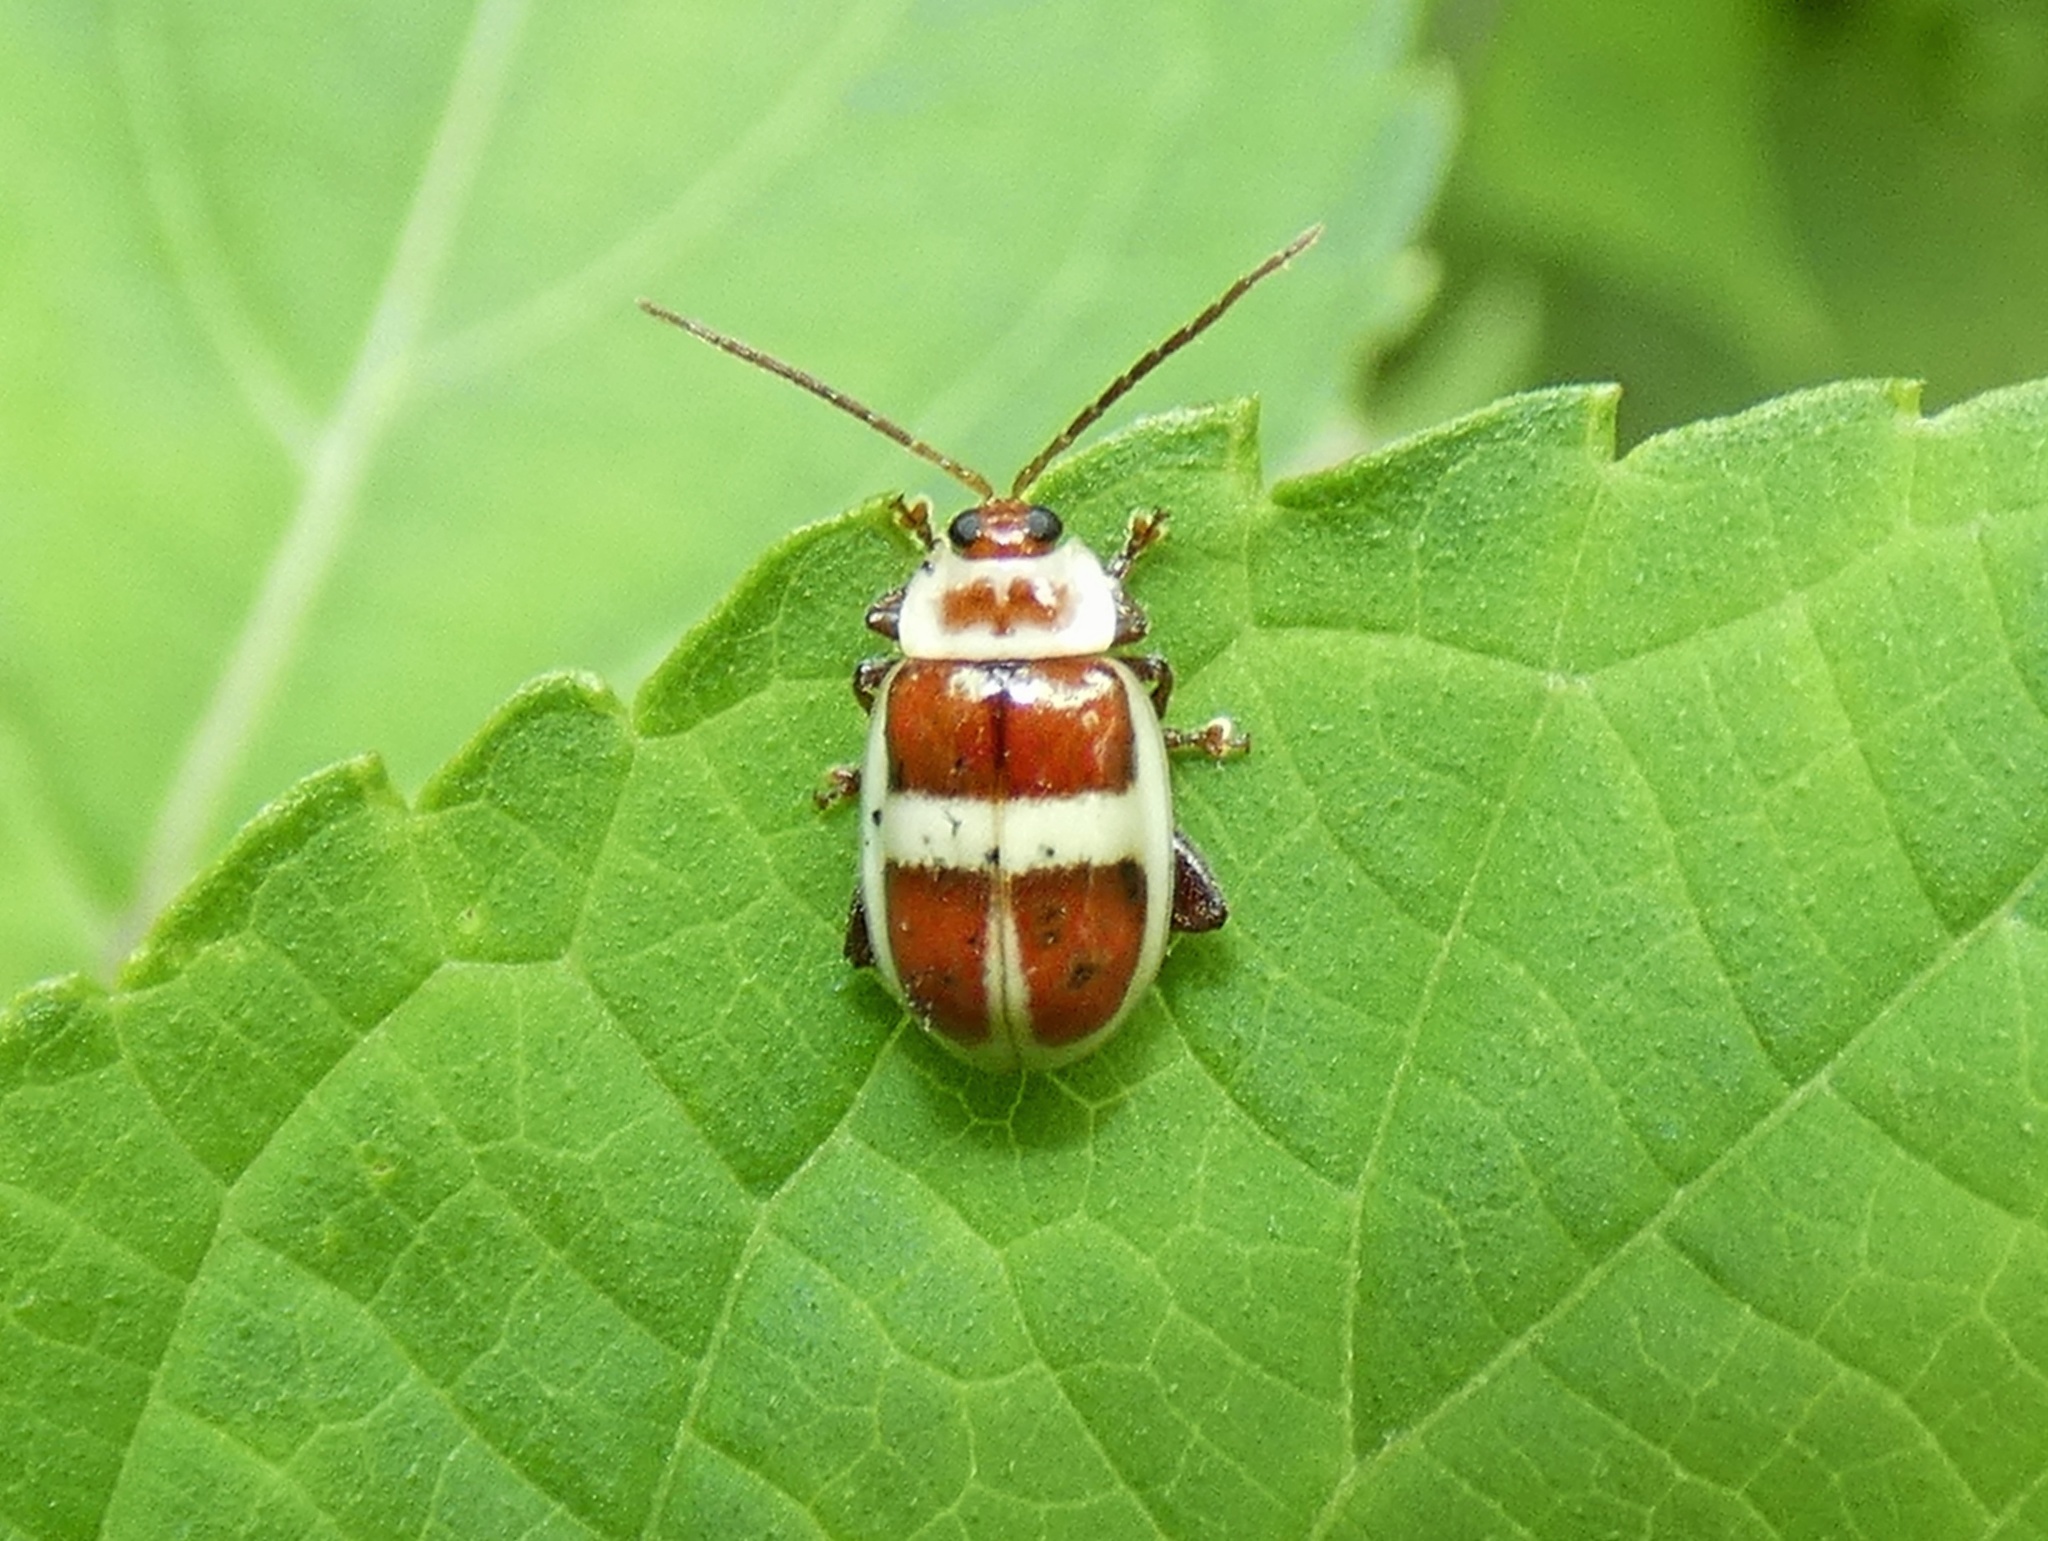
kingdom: Animalia
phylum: Arthropoda
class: Insecta
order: Coleoptera
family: Chrysomelidae
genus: Asphaera
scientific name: Asphaera discicollis
